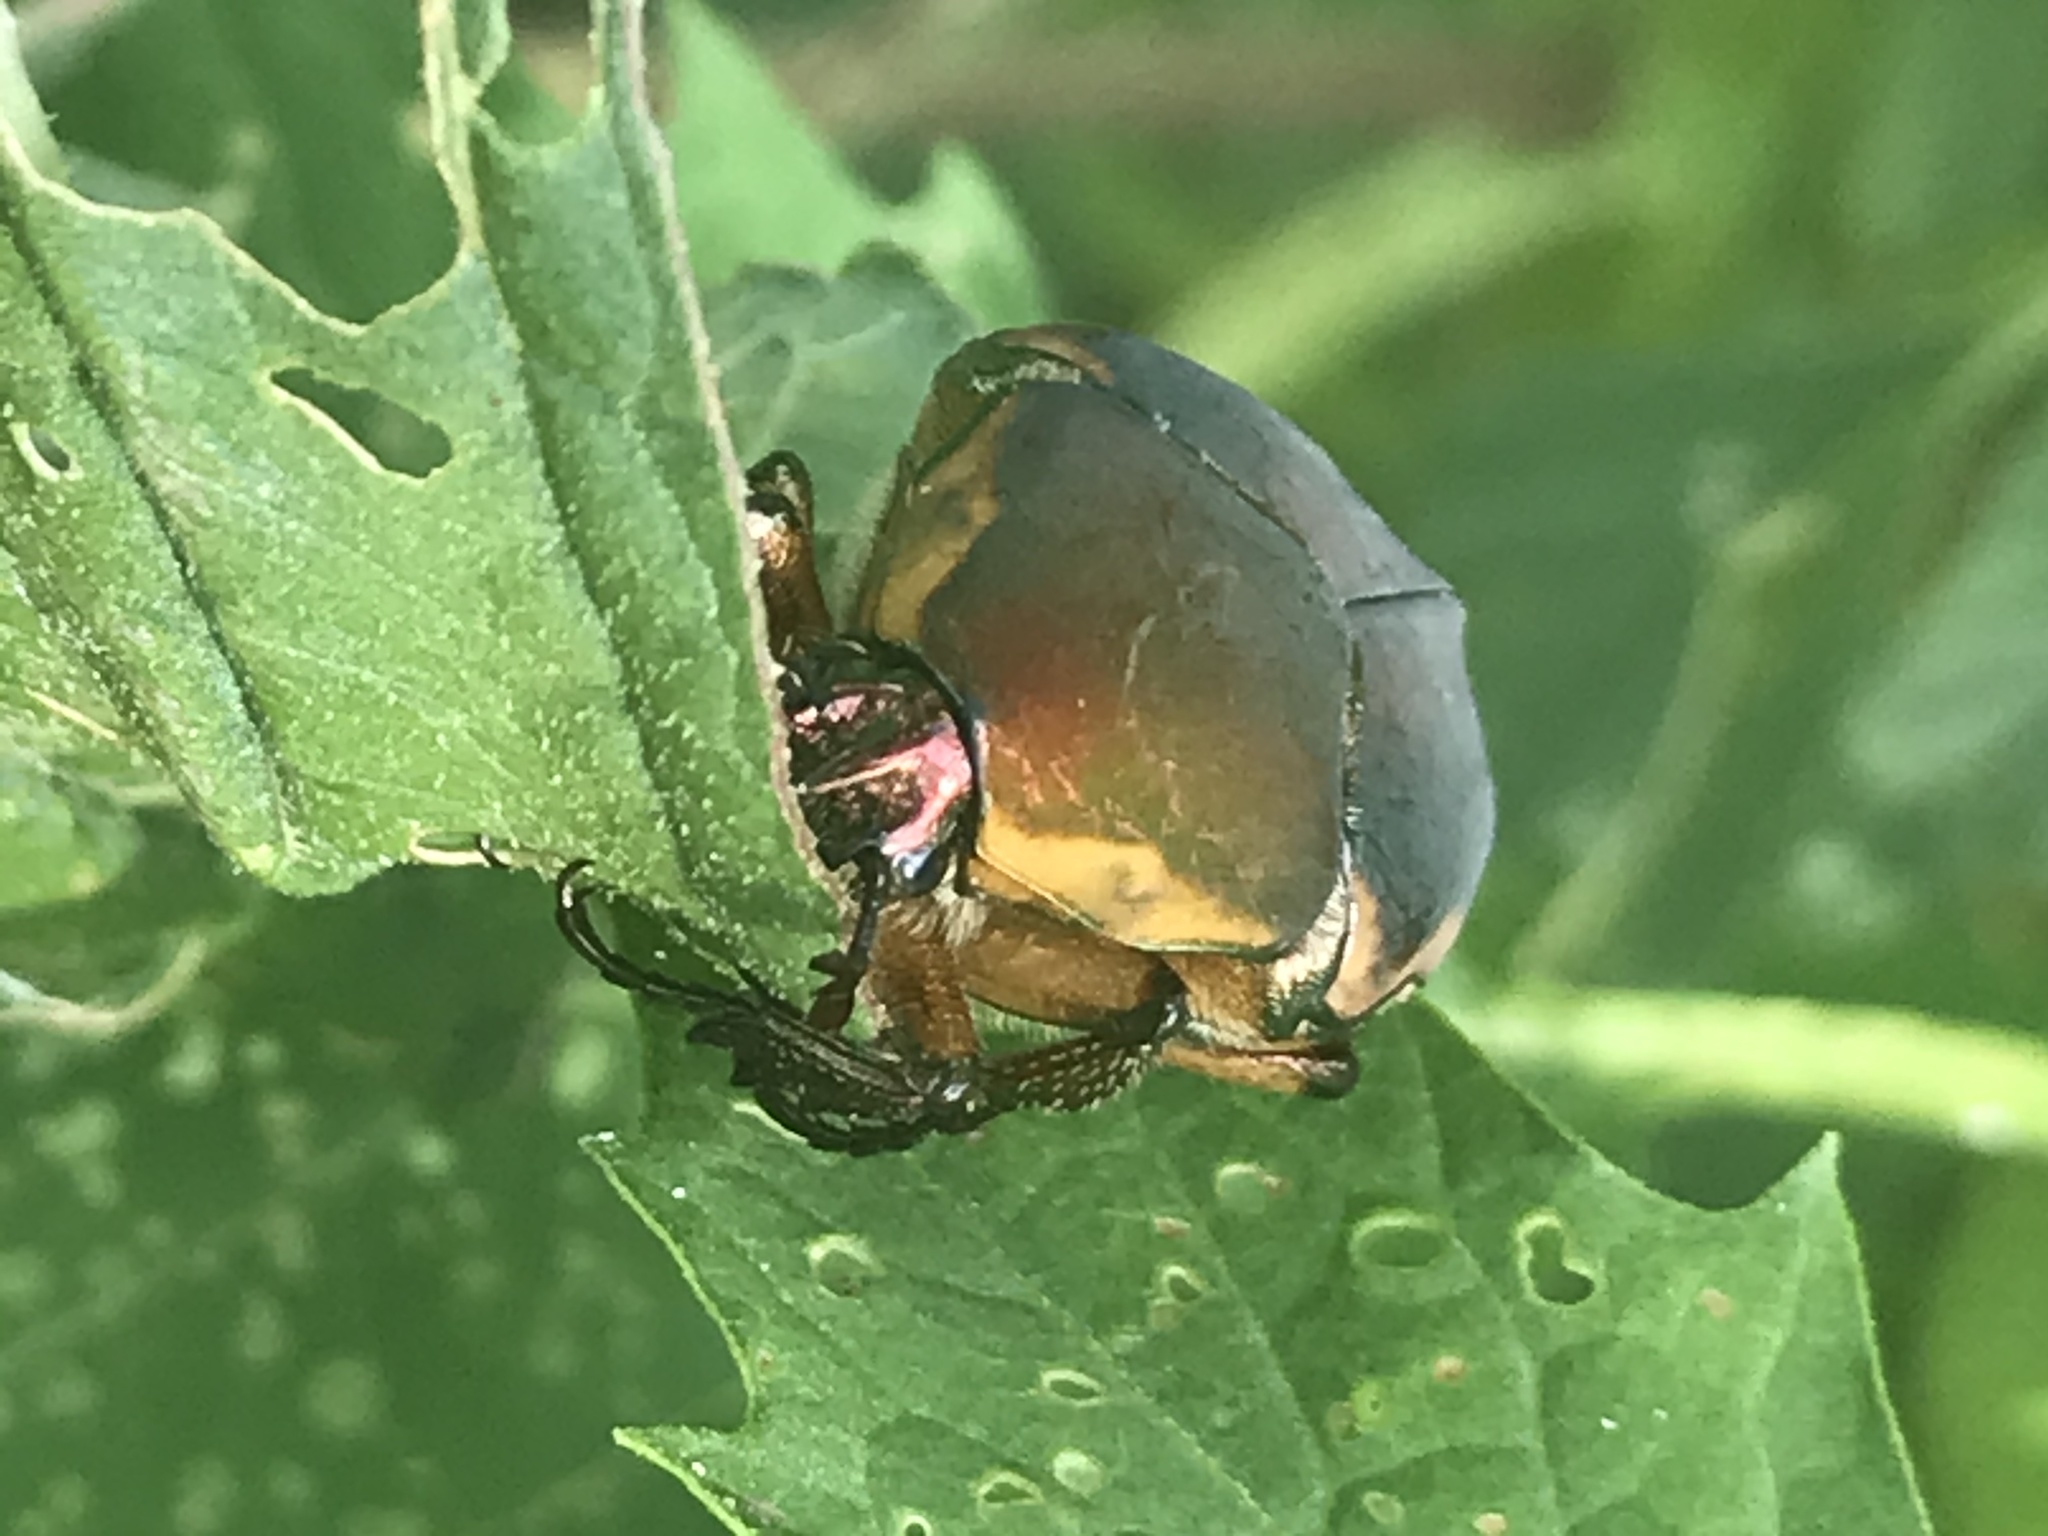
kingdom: Animalia
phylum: Arthropoda
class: Insecta
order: Coleoptera
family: Scarabaeidae
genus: Cotinis
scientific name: Cotinis nitida
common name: Common green june beetle
